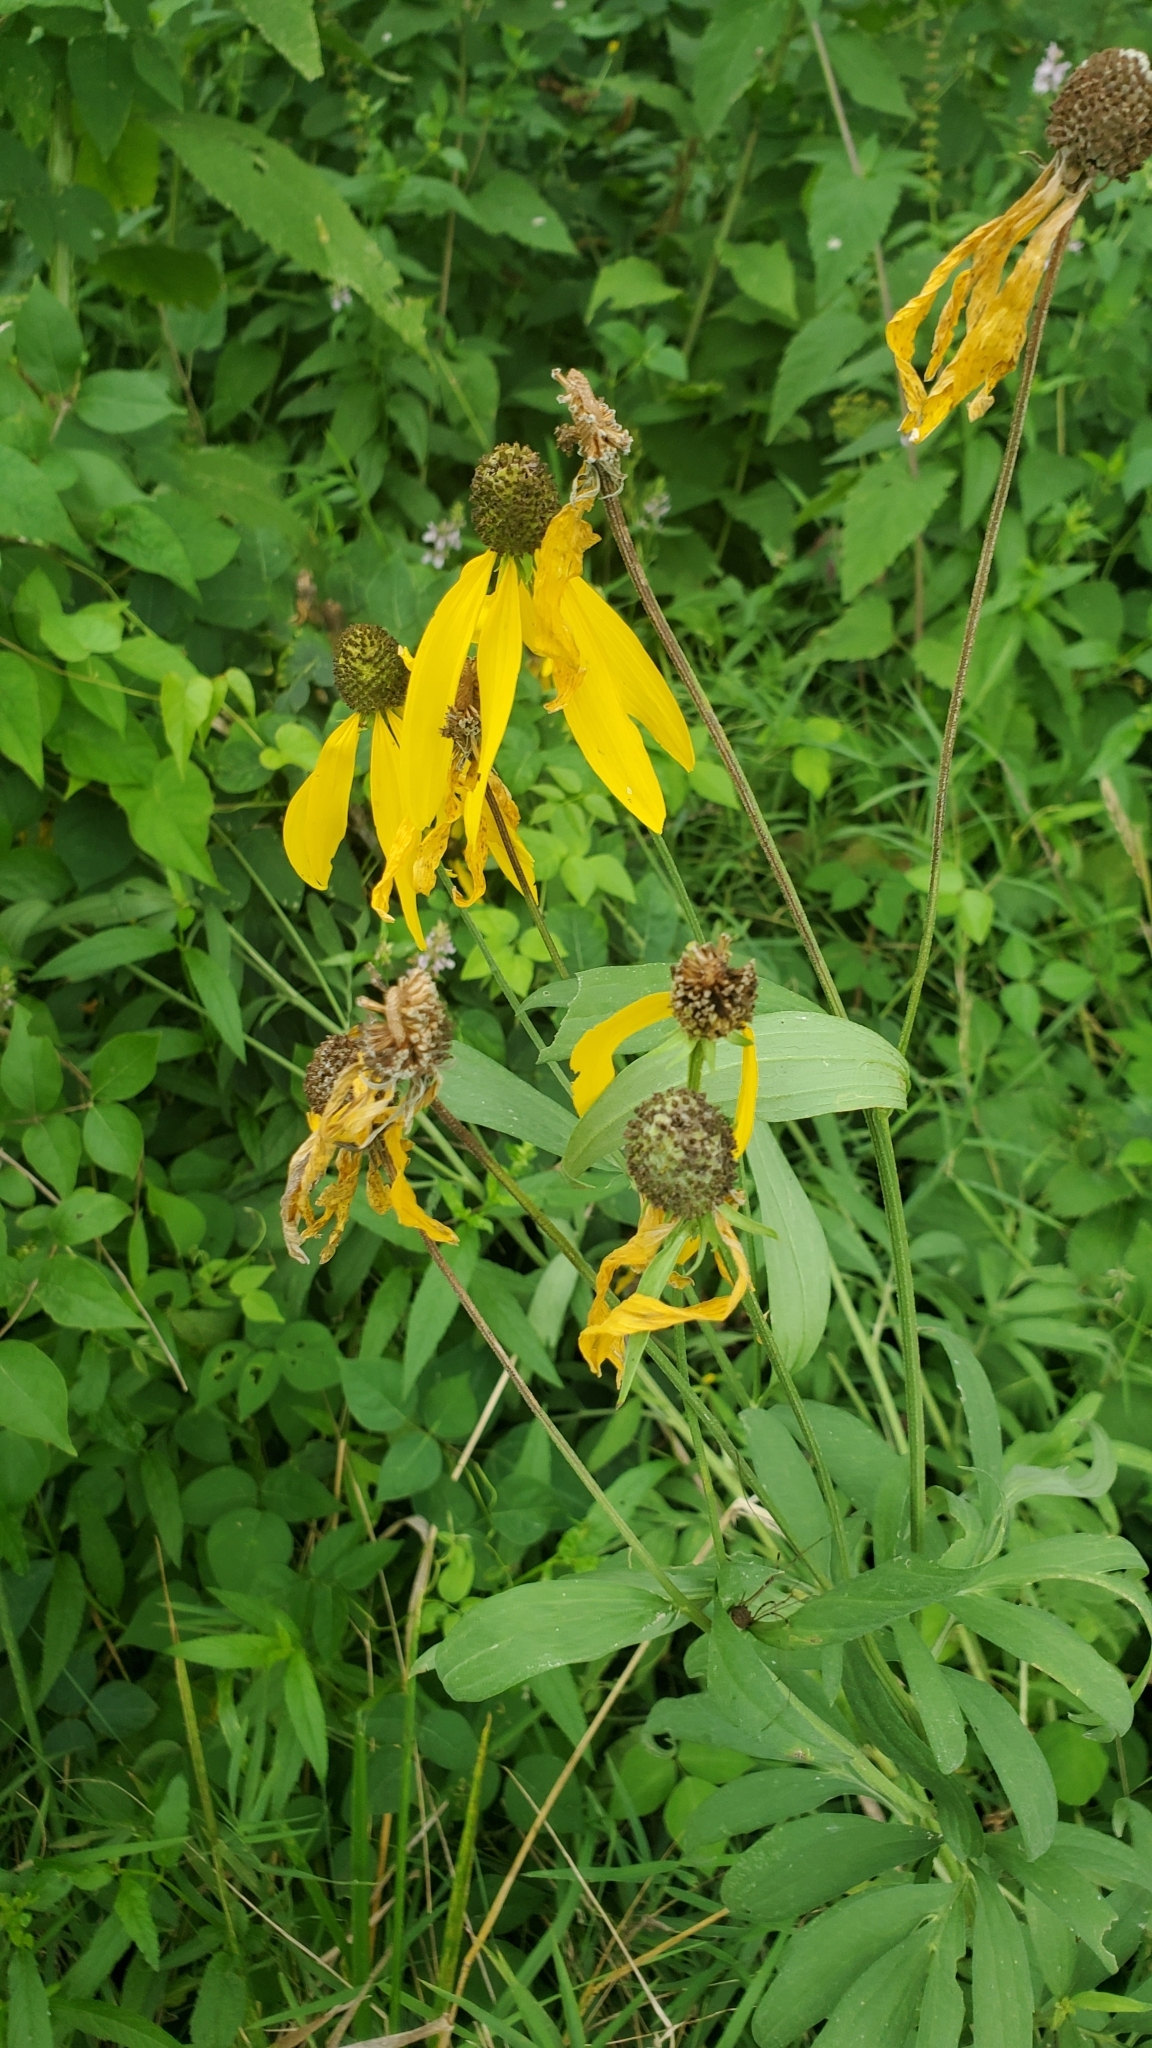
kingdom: Plantae
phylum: Tracheophyta
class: Magnoliopsida
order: Asterales
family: Asteraceae
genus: Ratibida
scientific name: Ratibida pinnata
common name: Drooping prairie-coneflower
